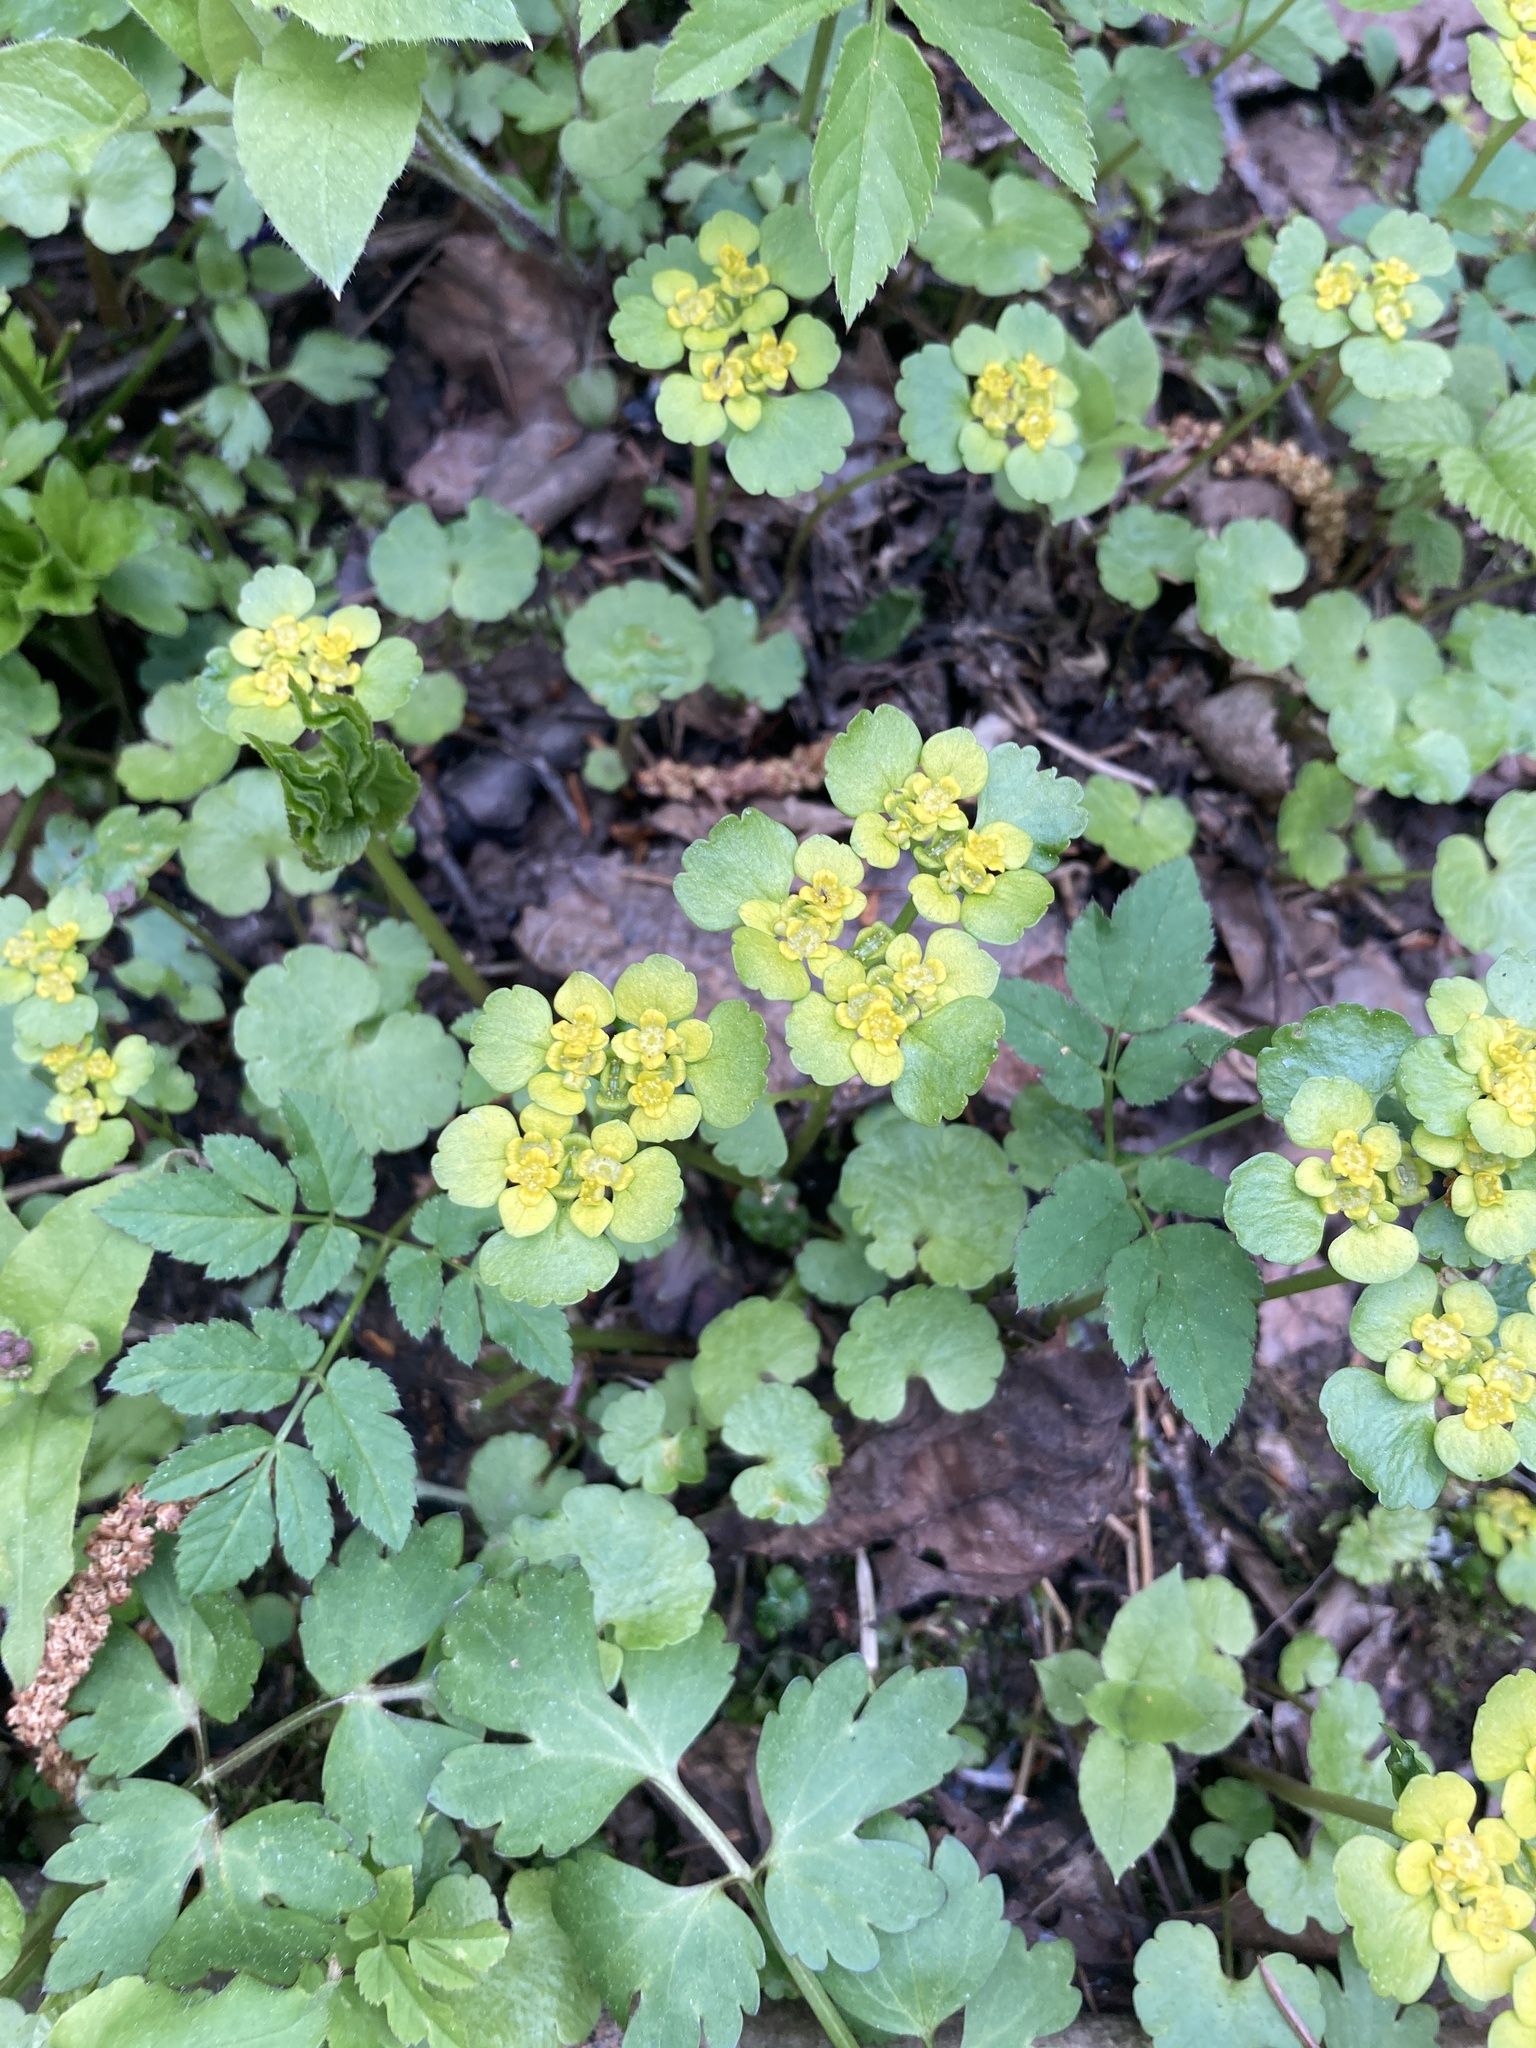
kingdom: Plantae
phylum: Tracheophyta
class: Magnoliopsida
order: Saxifragales
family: Saxifragaceae
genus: Chrysosplenium
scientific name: Chrysosplenium alternifolium
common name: Alternate-leaved golden-saxifrage
